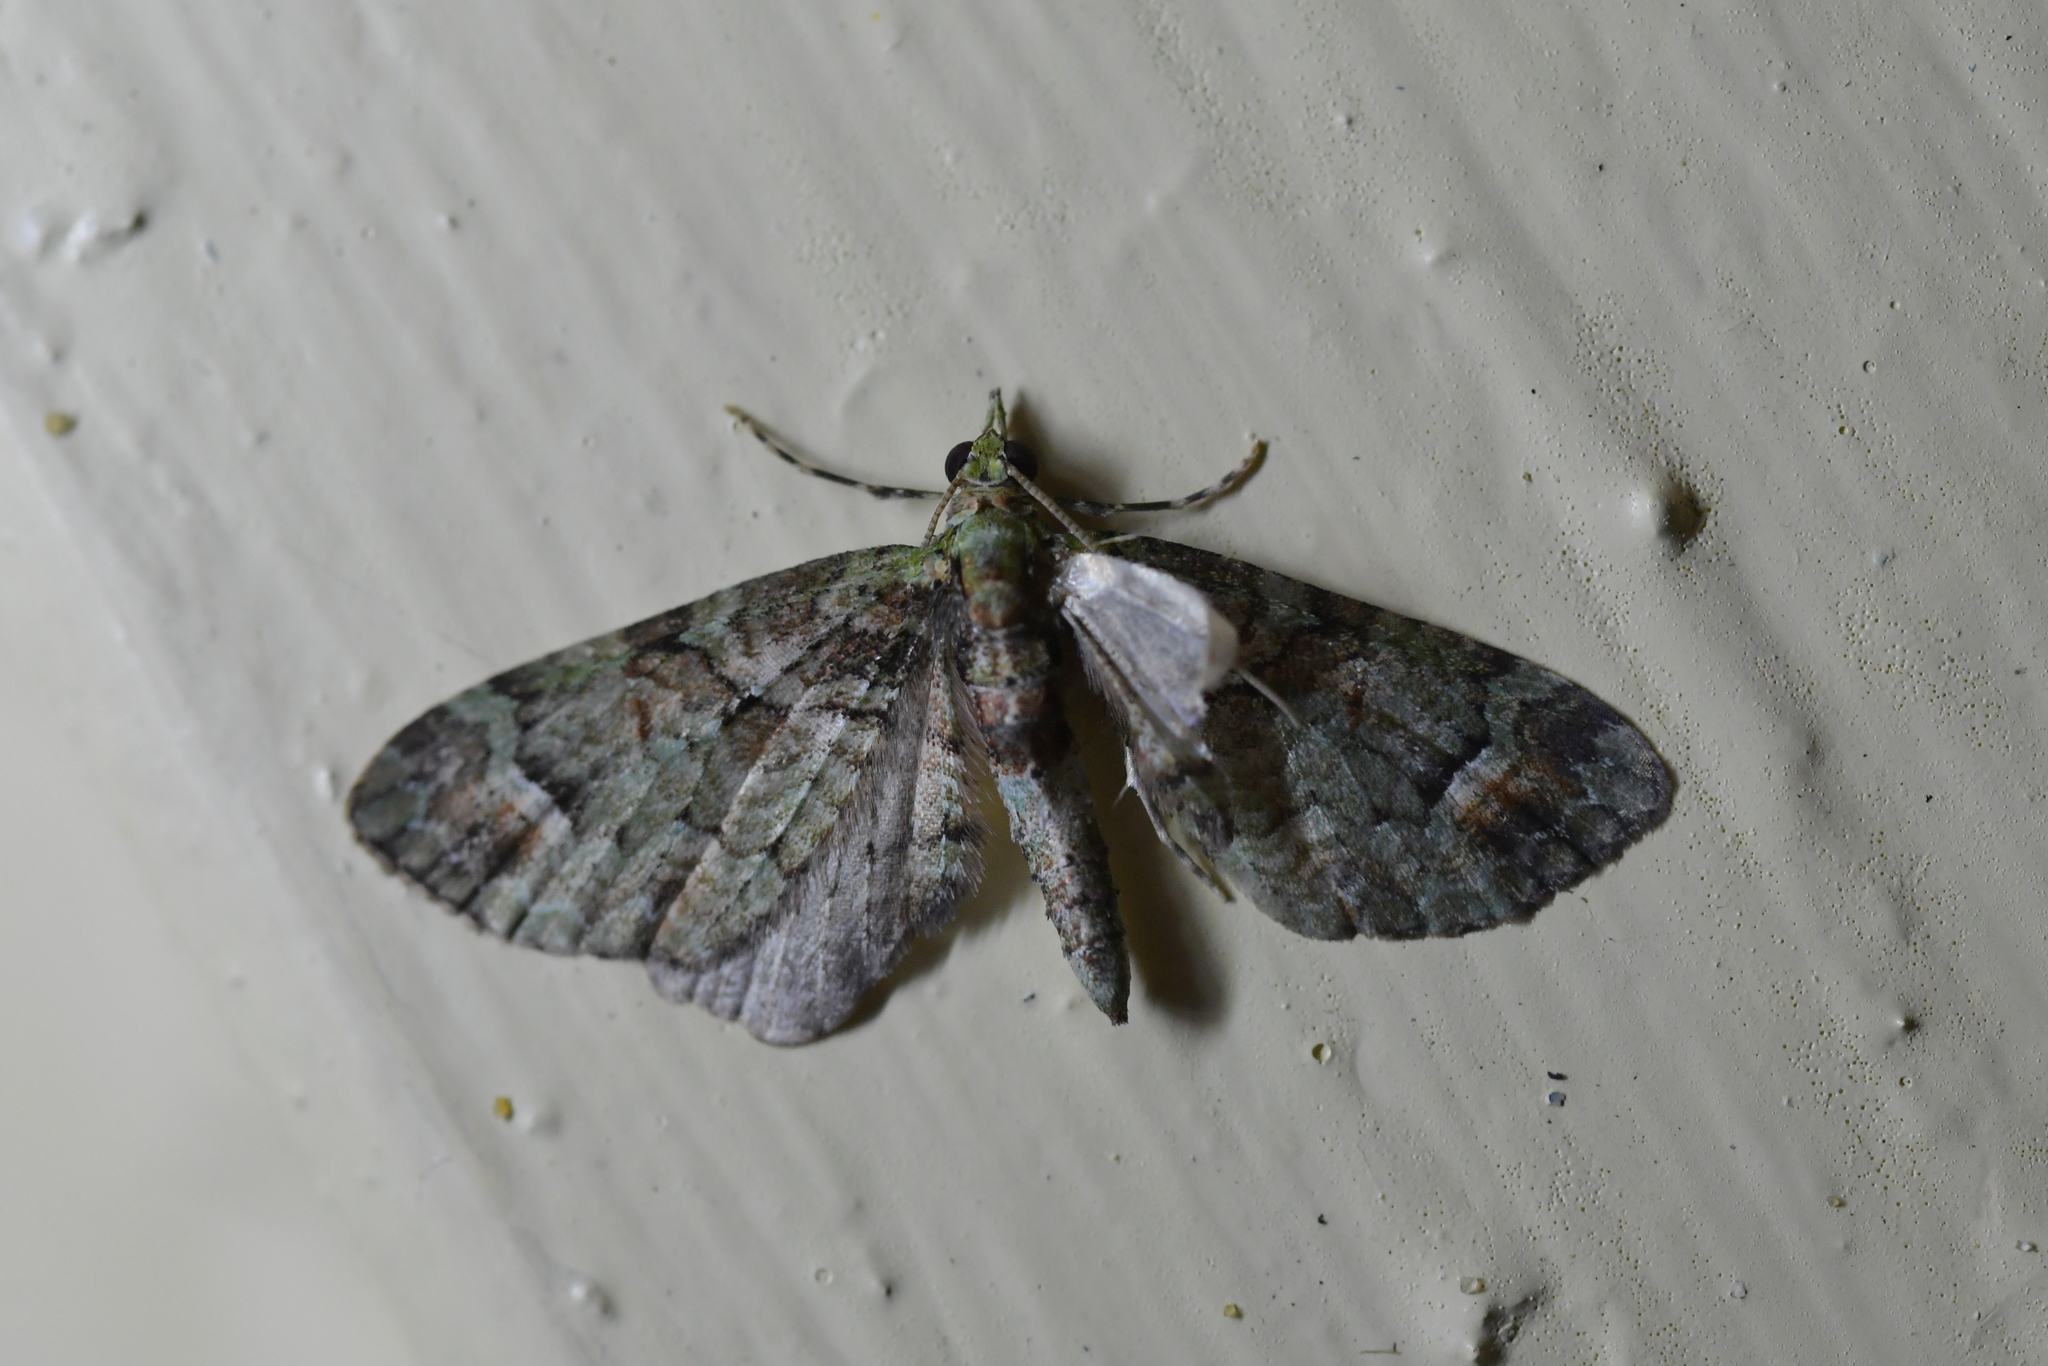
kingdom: Animalia
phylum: Arthropoda
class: Insecta
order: Lepidoptera
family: Geometridae
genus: Idaea
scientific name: Idaea mutanda
